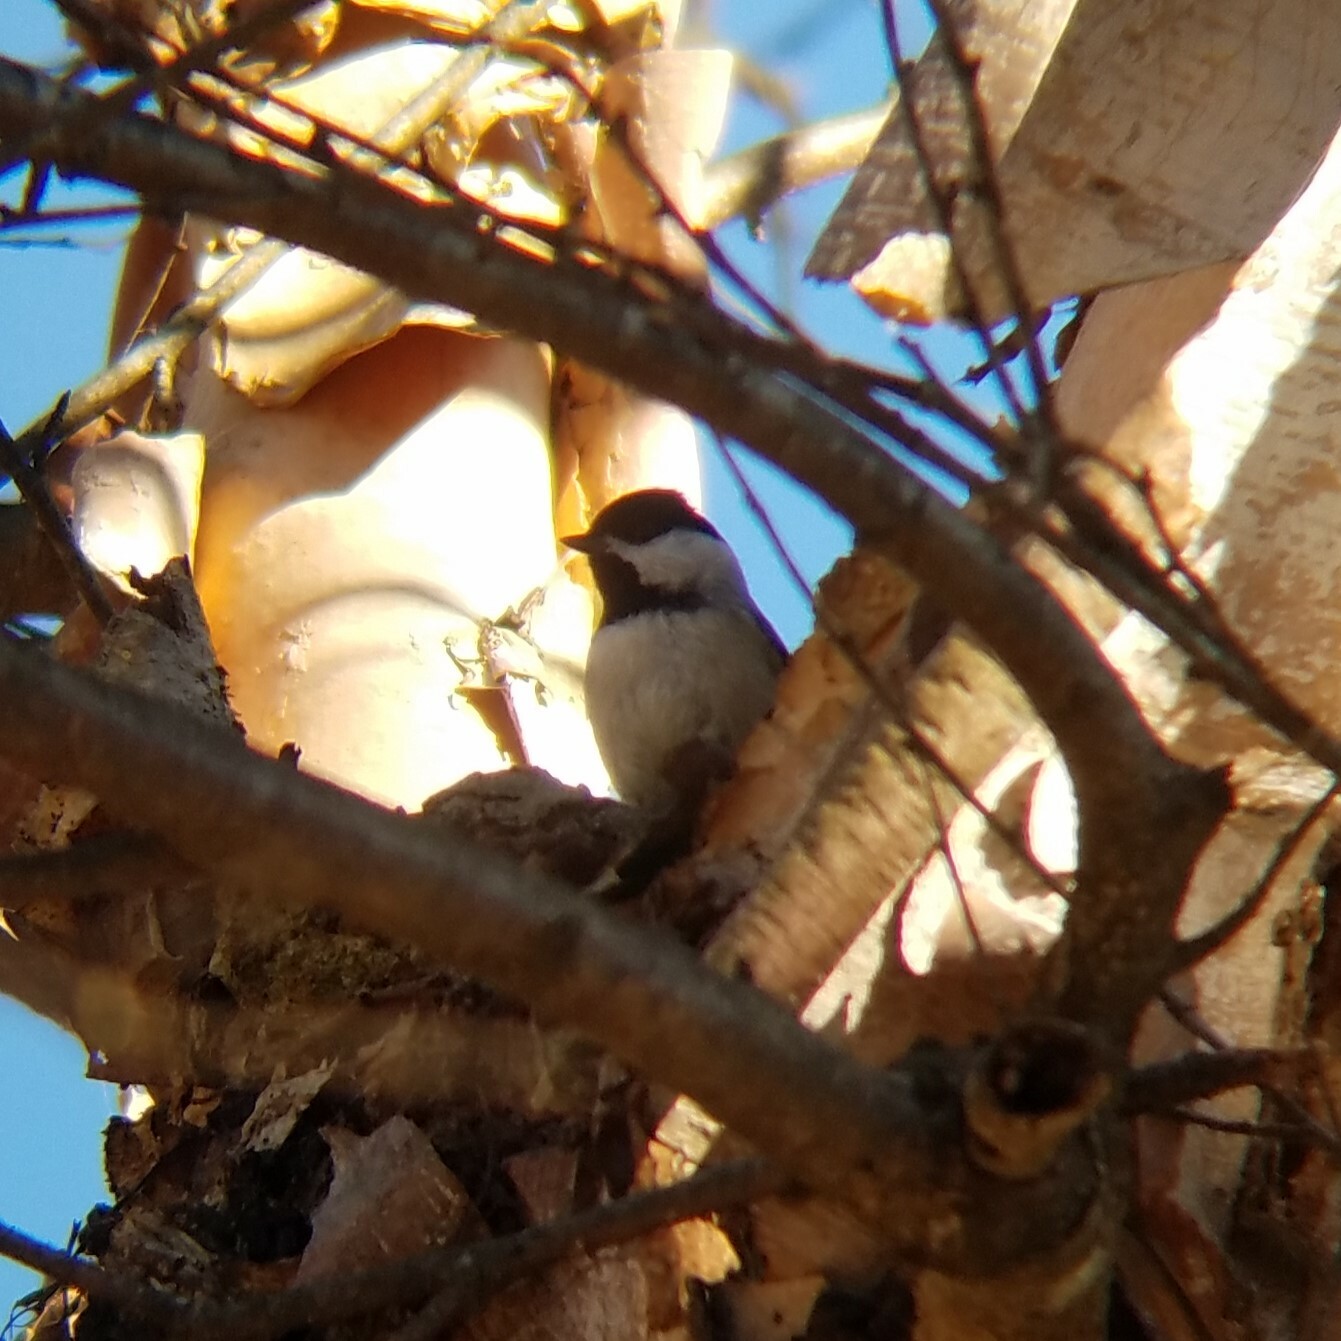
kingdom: Animalia
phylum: Chordata
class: Aves
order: Passeriformes
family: Paridae
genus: Poecile
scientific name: Poecile carolinensis
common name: Carolina chickadee
